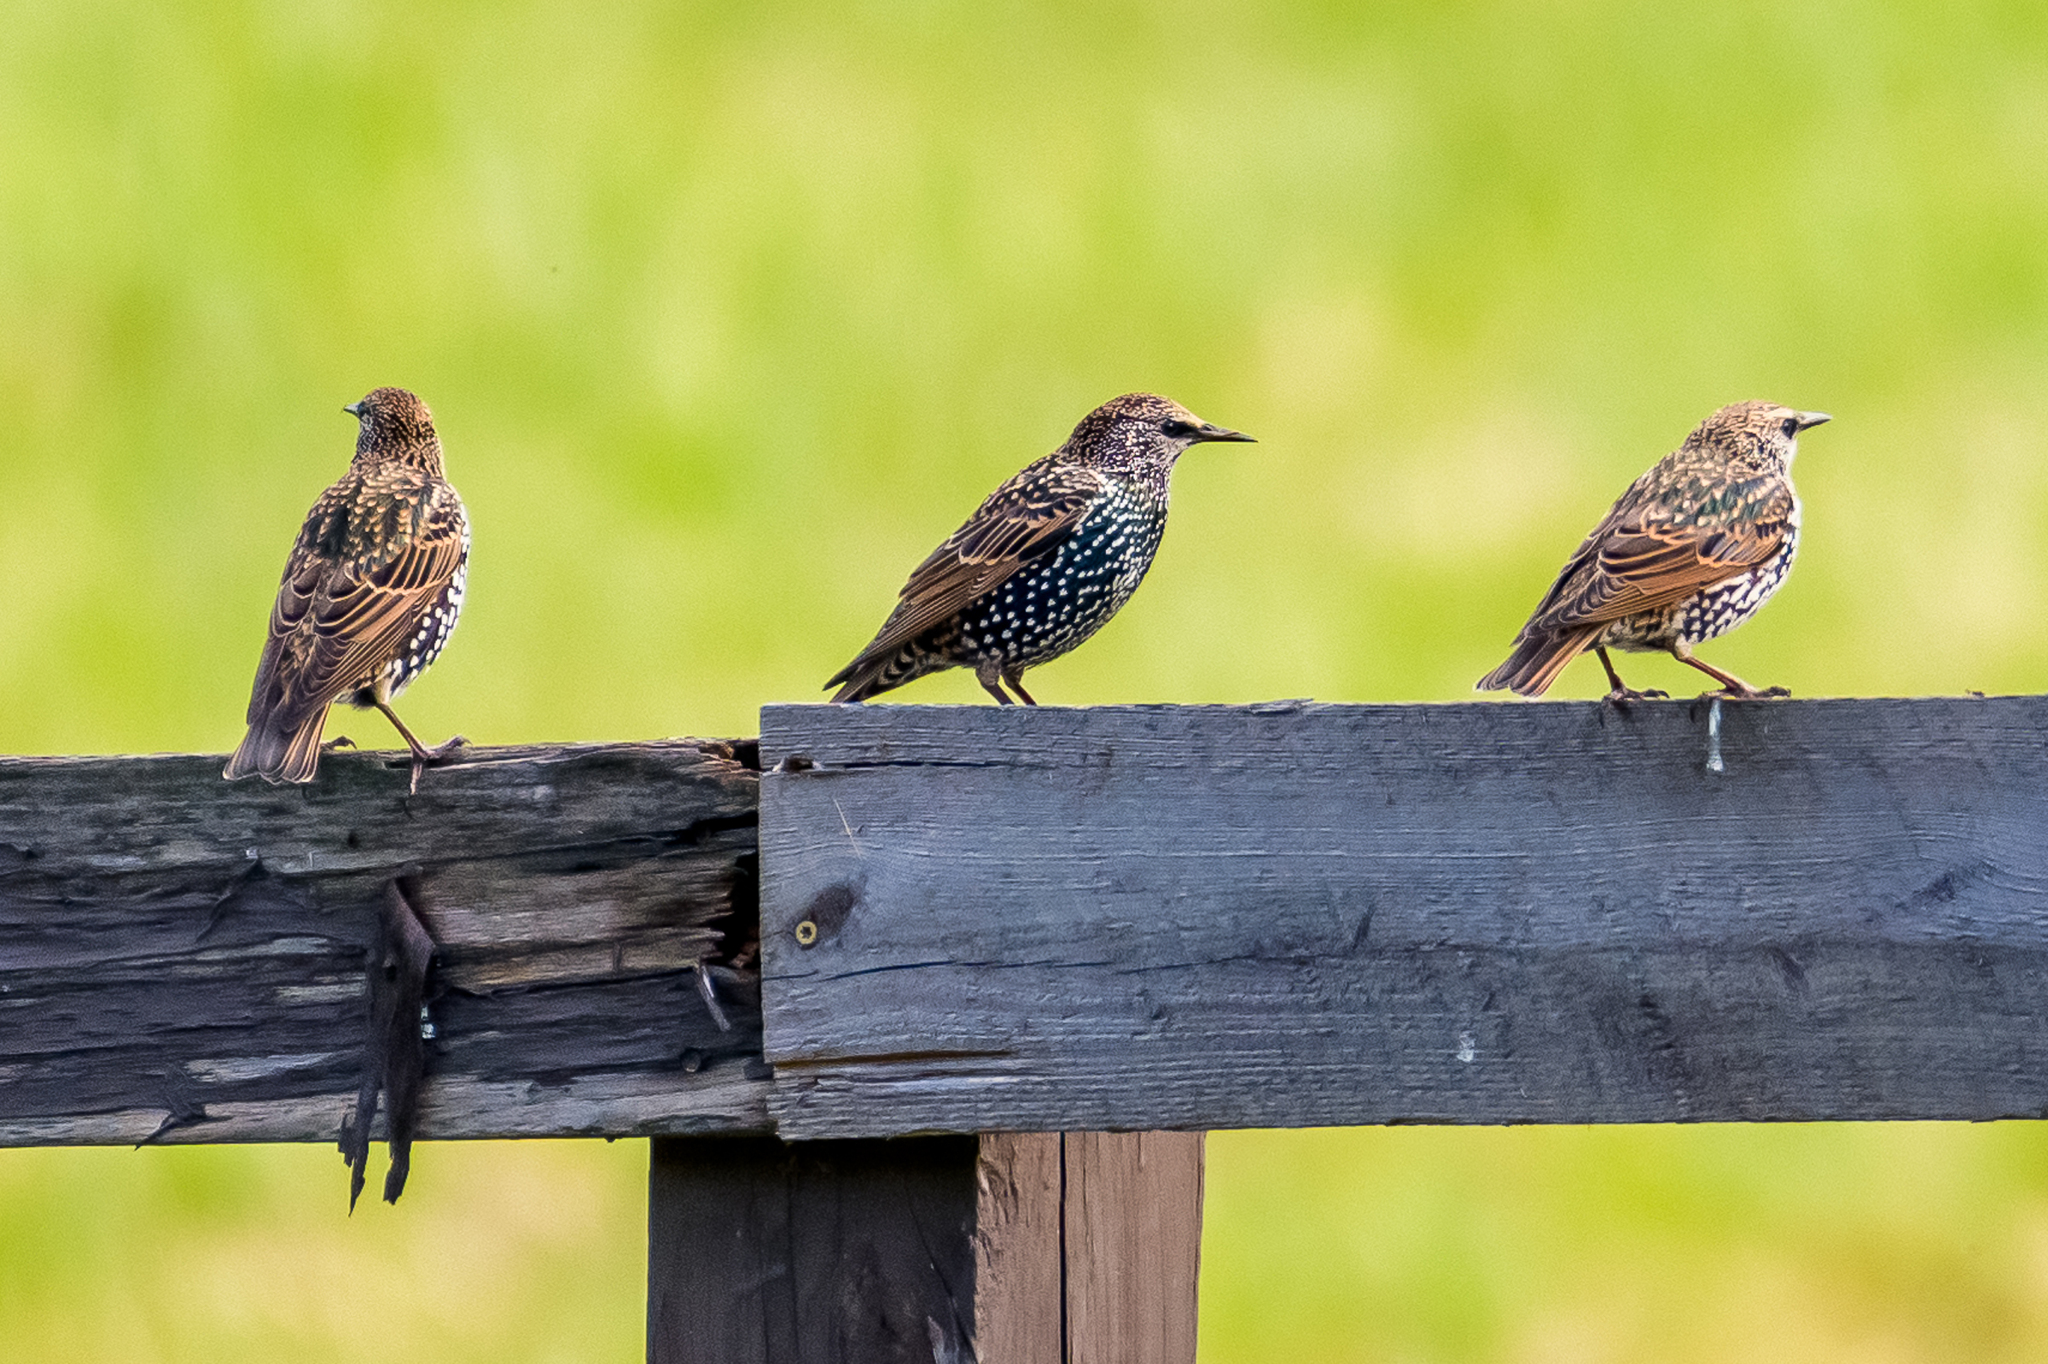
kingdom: Animalia
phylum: Chordata
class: Aves
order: Passeriformes
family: Sturnidae
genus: Sturnus
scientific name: Sturnus vulgaris
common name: Common starling
